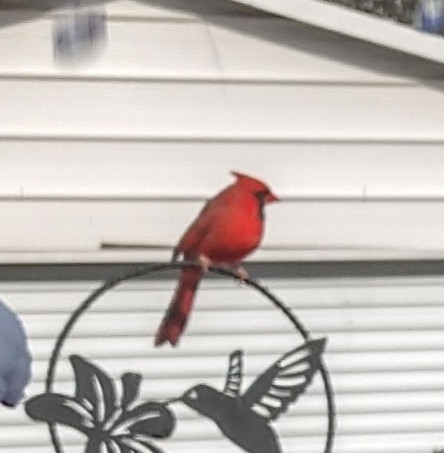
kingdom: Animalia
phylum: Chordata
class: Aves
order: Passeriformes
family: Cardinalidae
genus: Cardinalis
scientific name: Cardinalis cardinalis
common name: Northern cardinal
